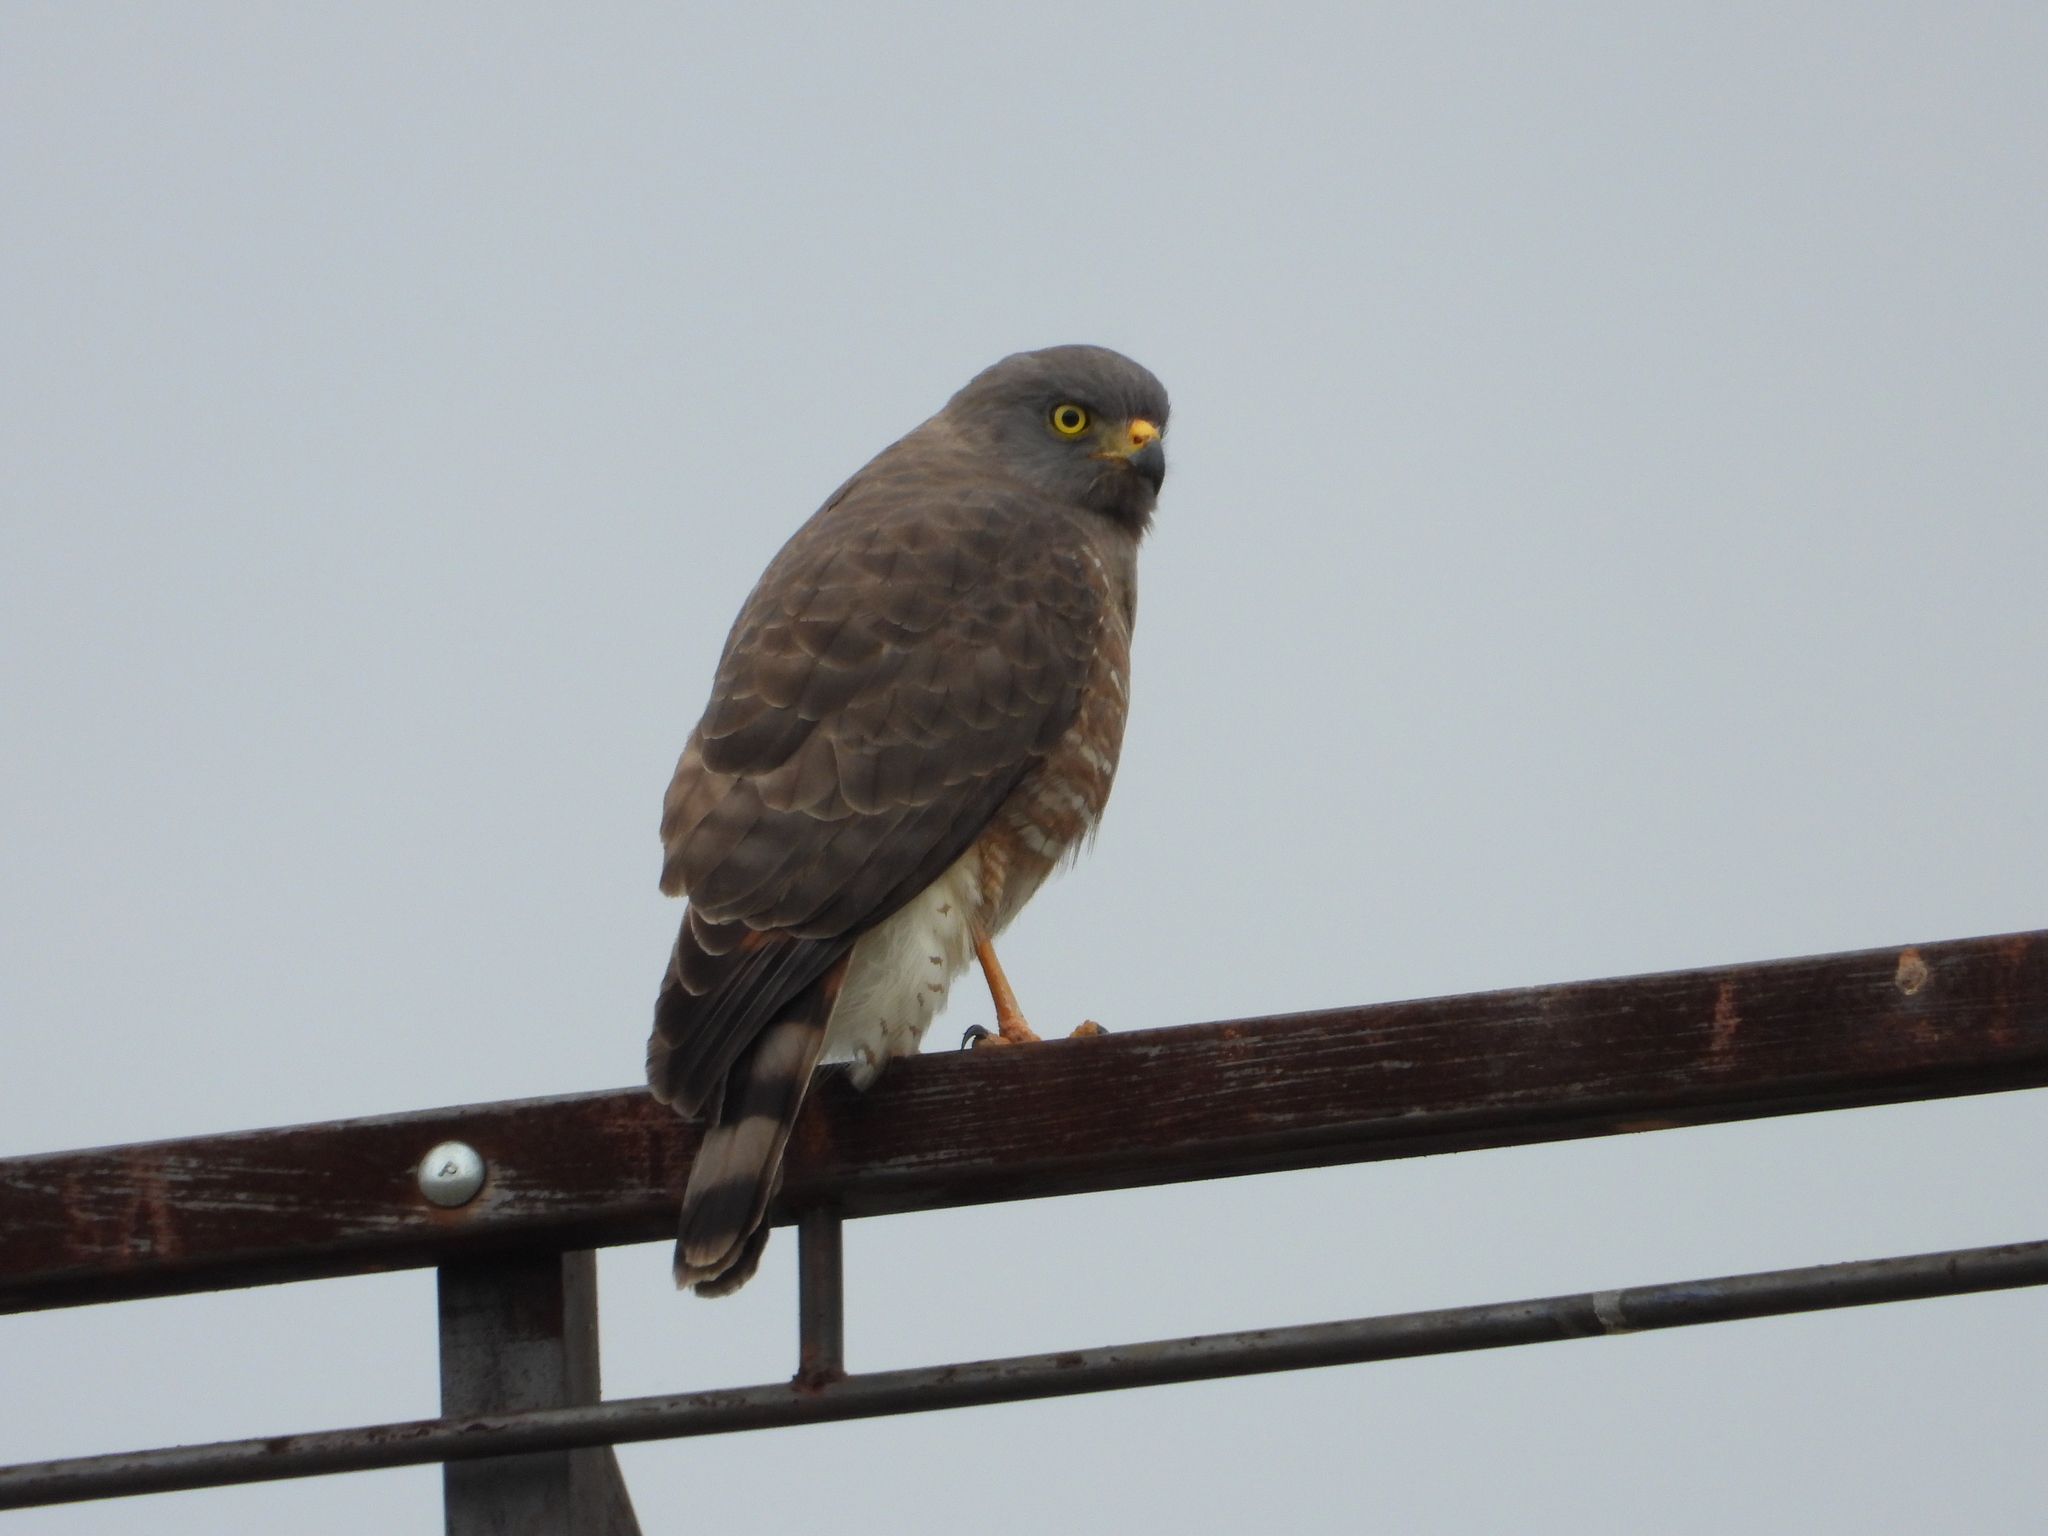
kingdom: Animalia
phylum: Chordata
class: Aves
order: Accipitriformes
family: Accipitridae
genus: Rupornis
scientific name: Rupornis magnirostris
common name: Roadside hawk
